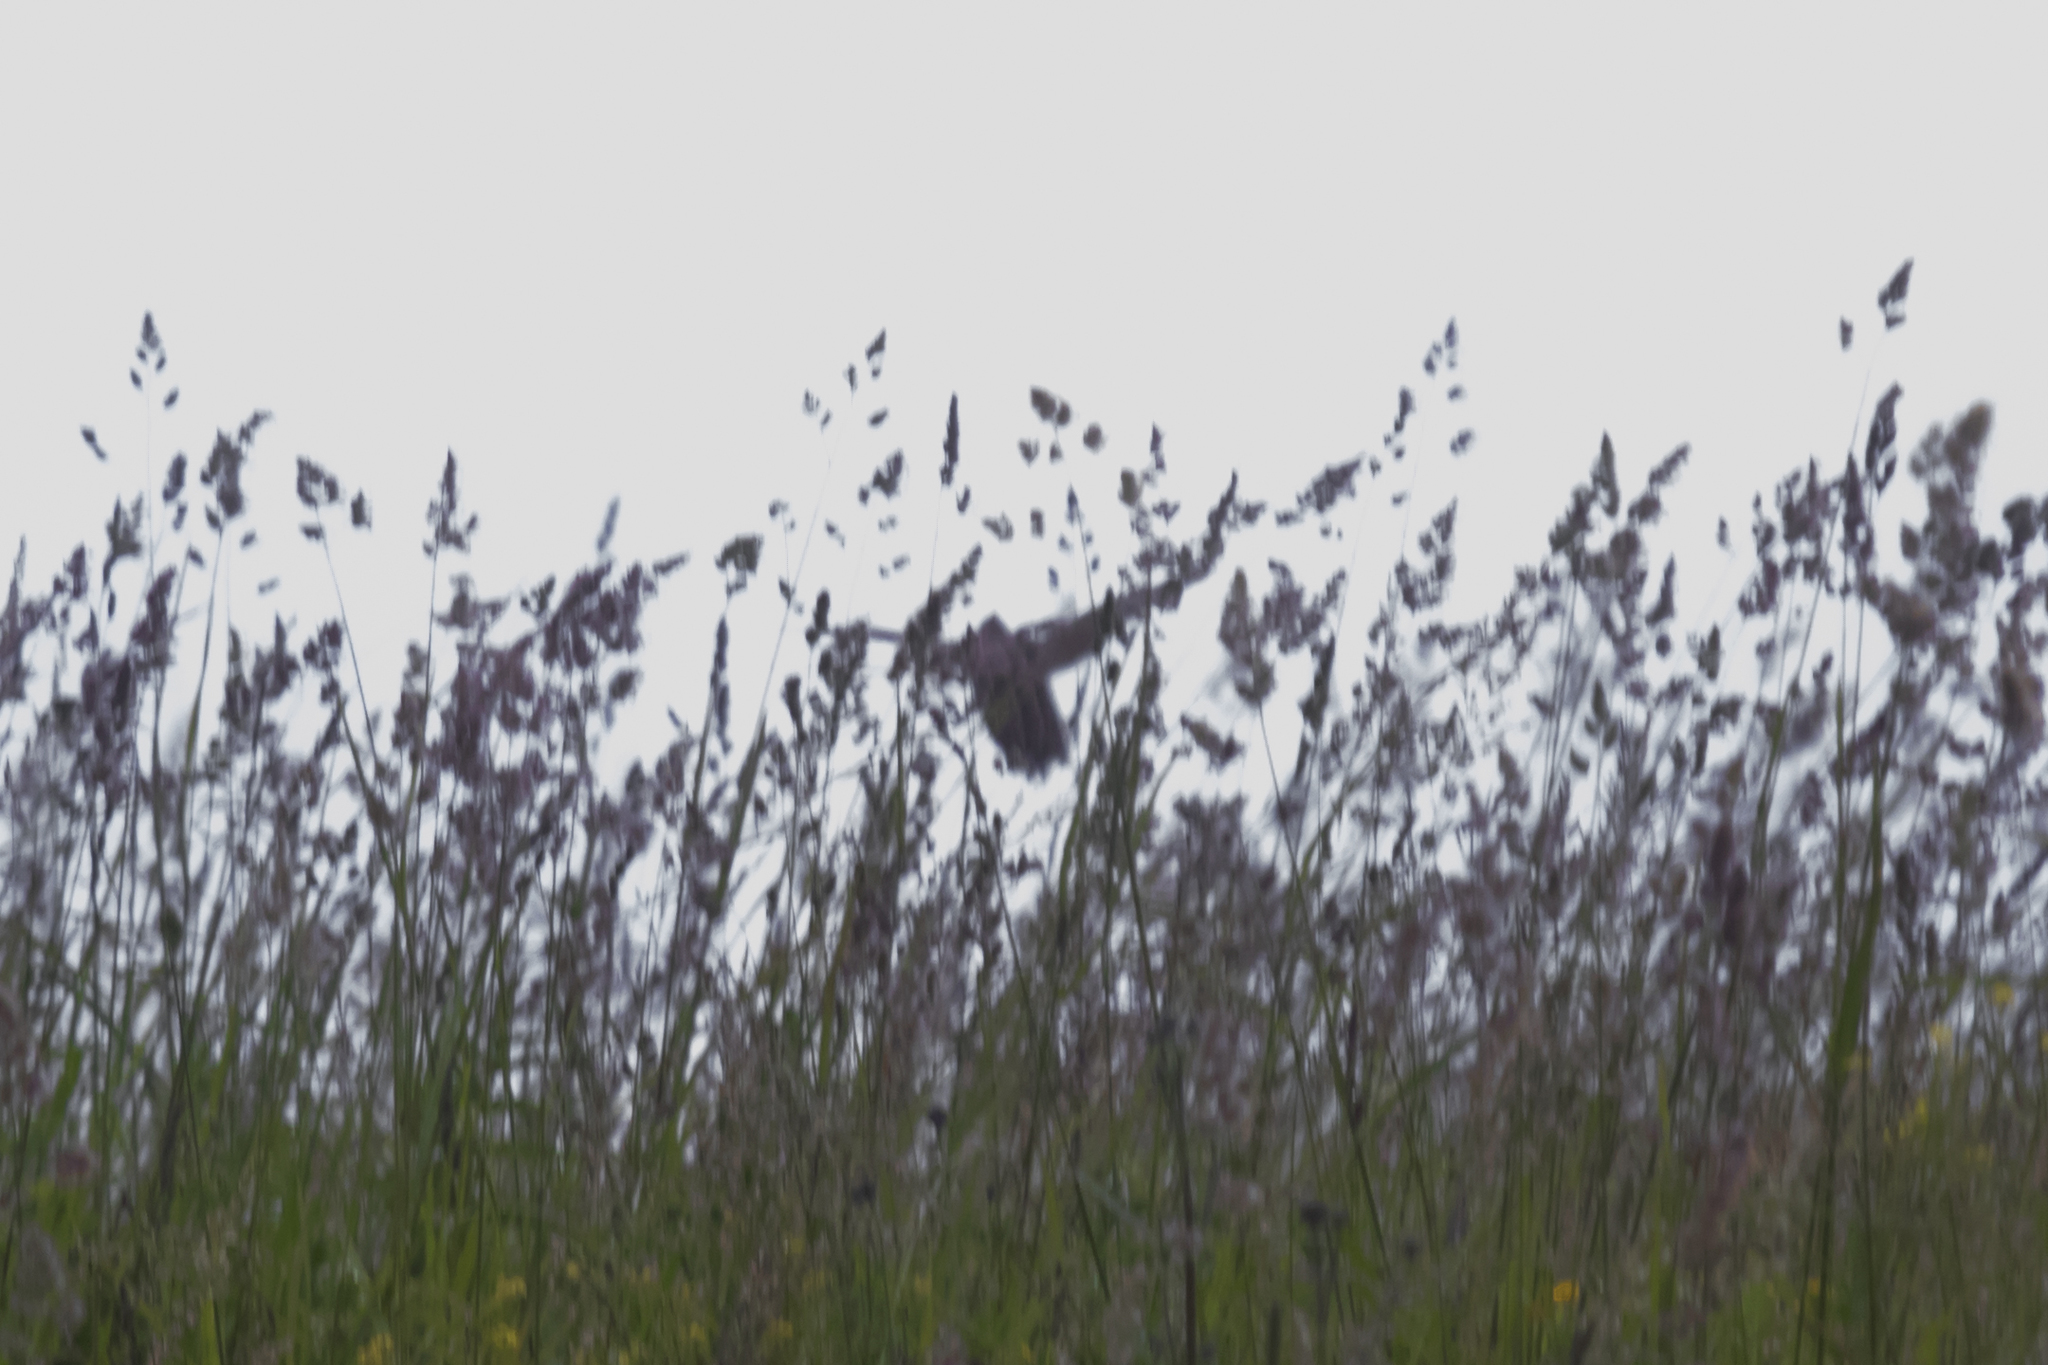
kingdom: Animalia
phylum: Chordata
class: Aves
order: Galliformes
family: Phasianidae
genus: Coturnix
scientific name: Coturnix coturnix
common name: Common quail
